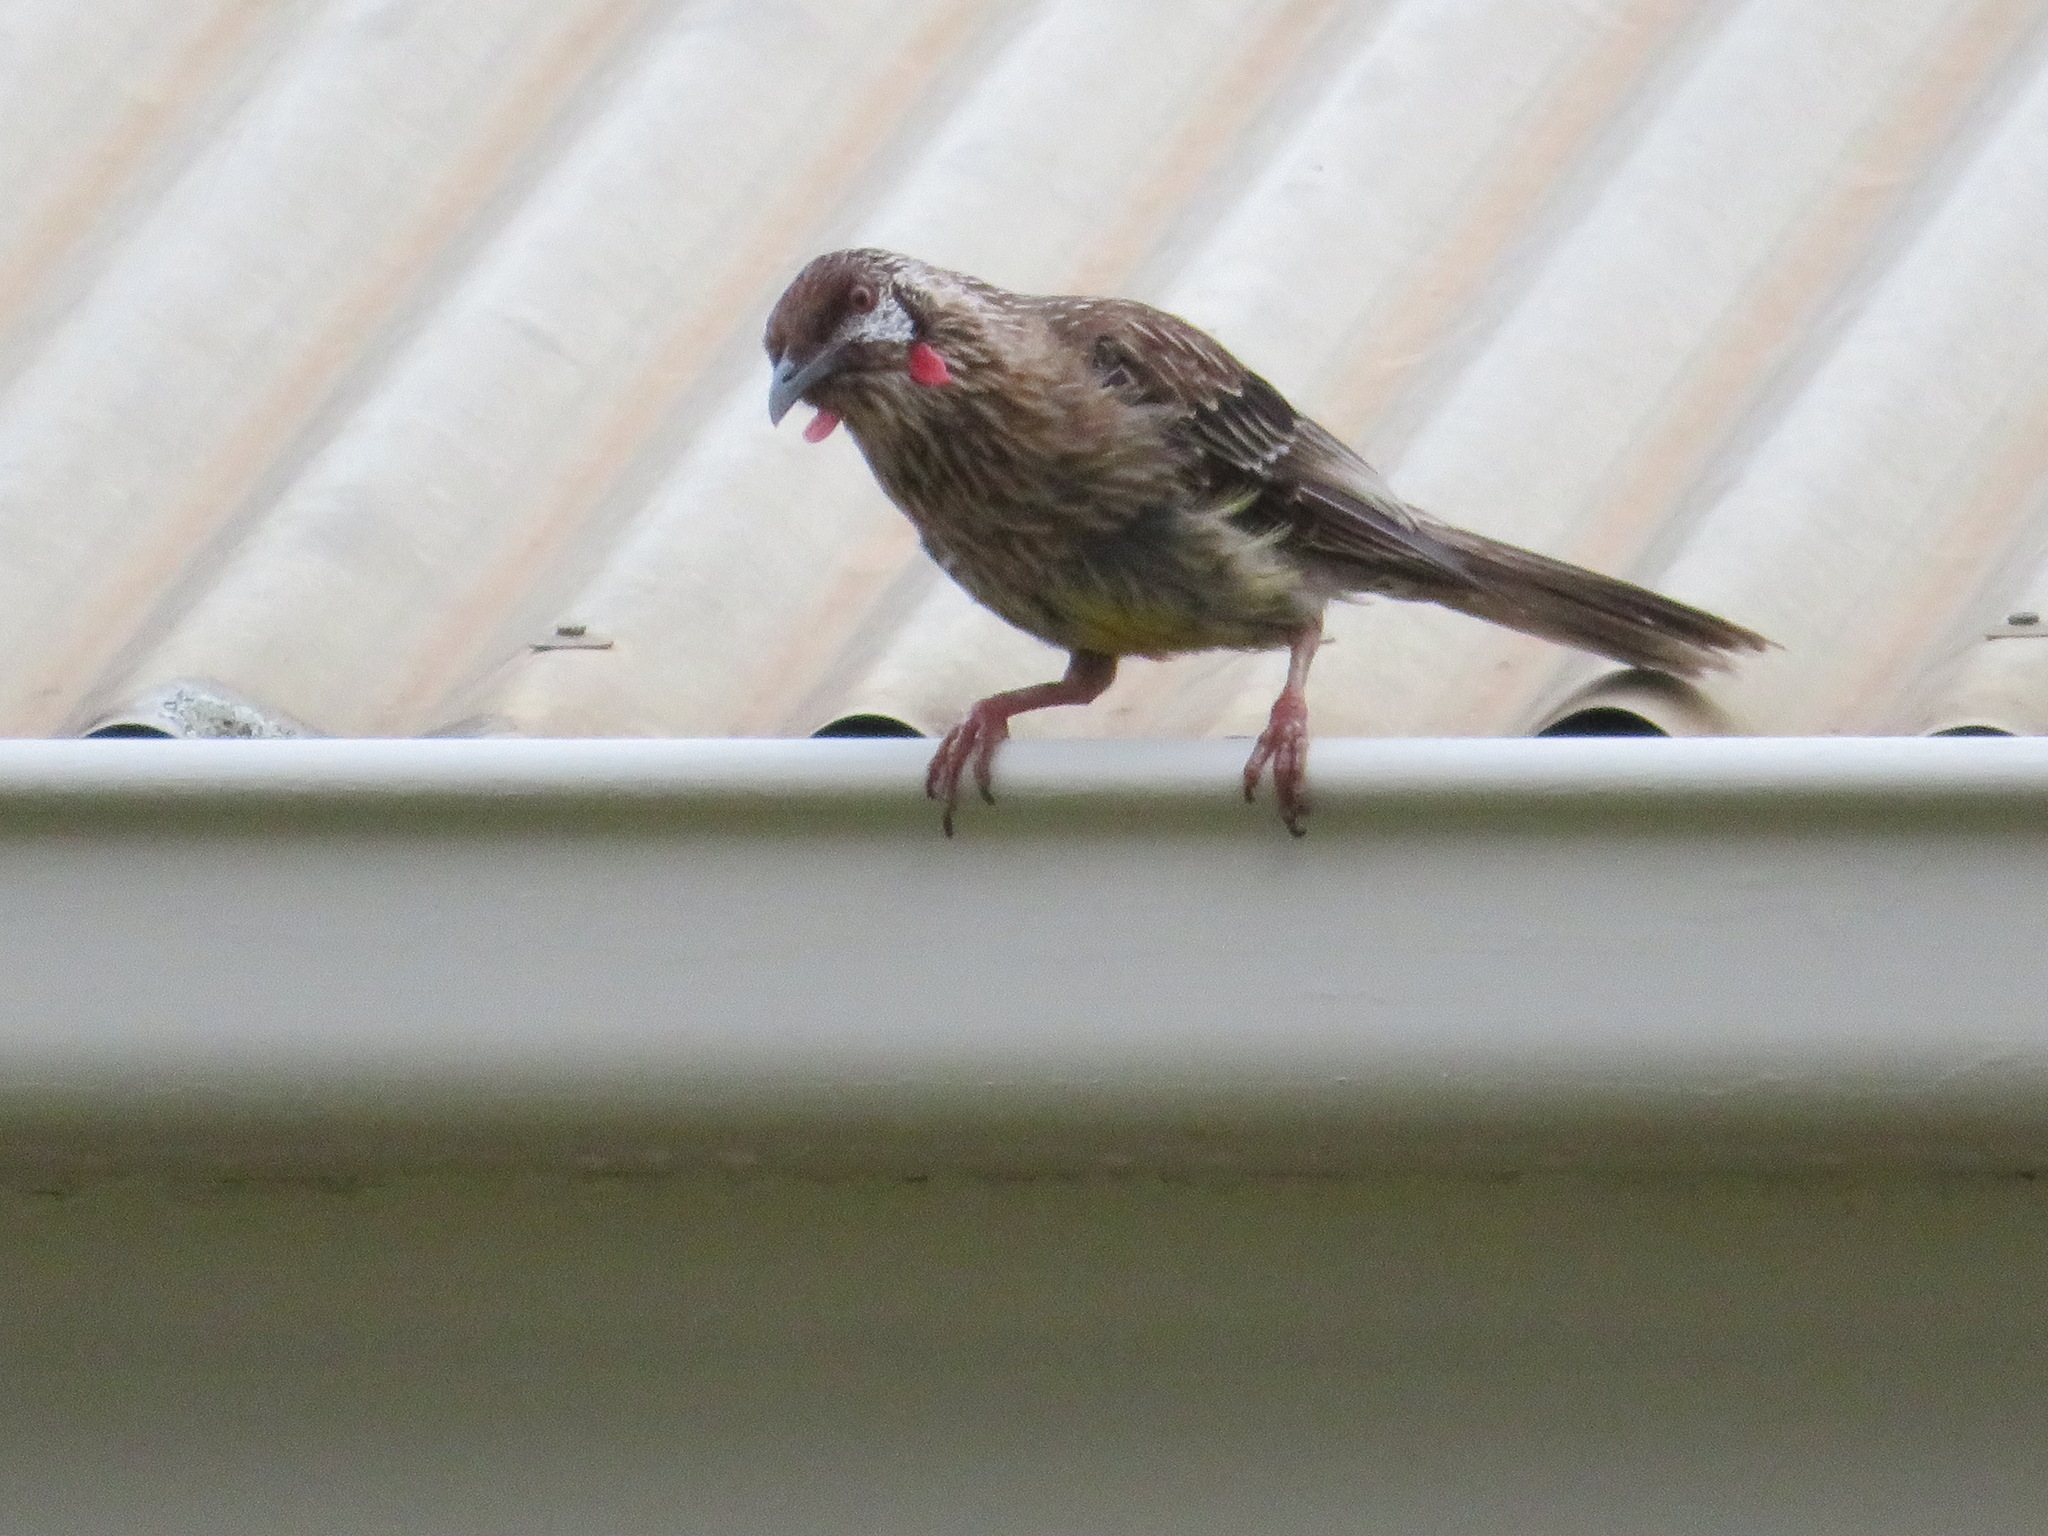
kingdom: Animalia
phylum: Chordata
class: Aves
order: Passeriformes
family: Meliphagidae
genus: Anthochaera
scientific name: Anthochaera carunculata
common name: Red wattlebird
